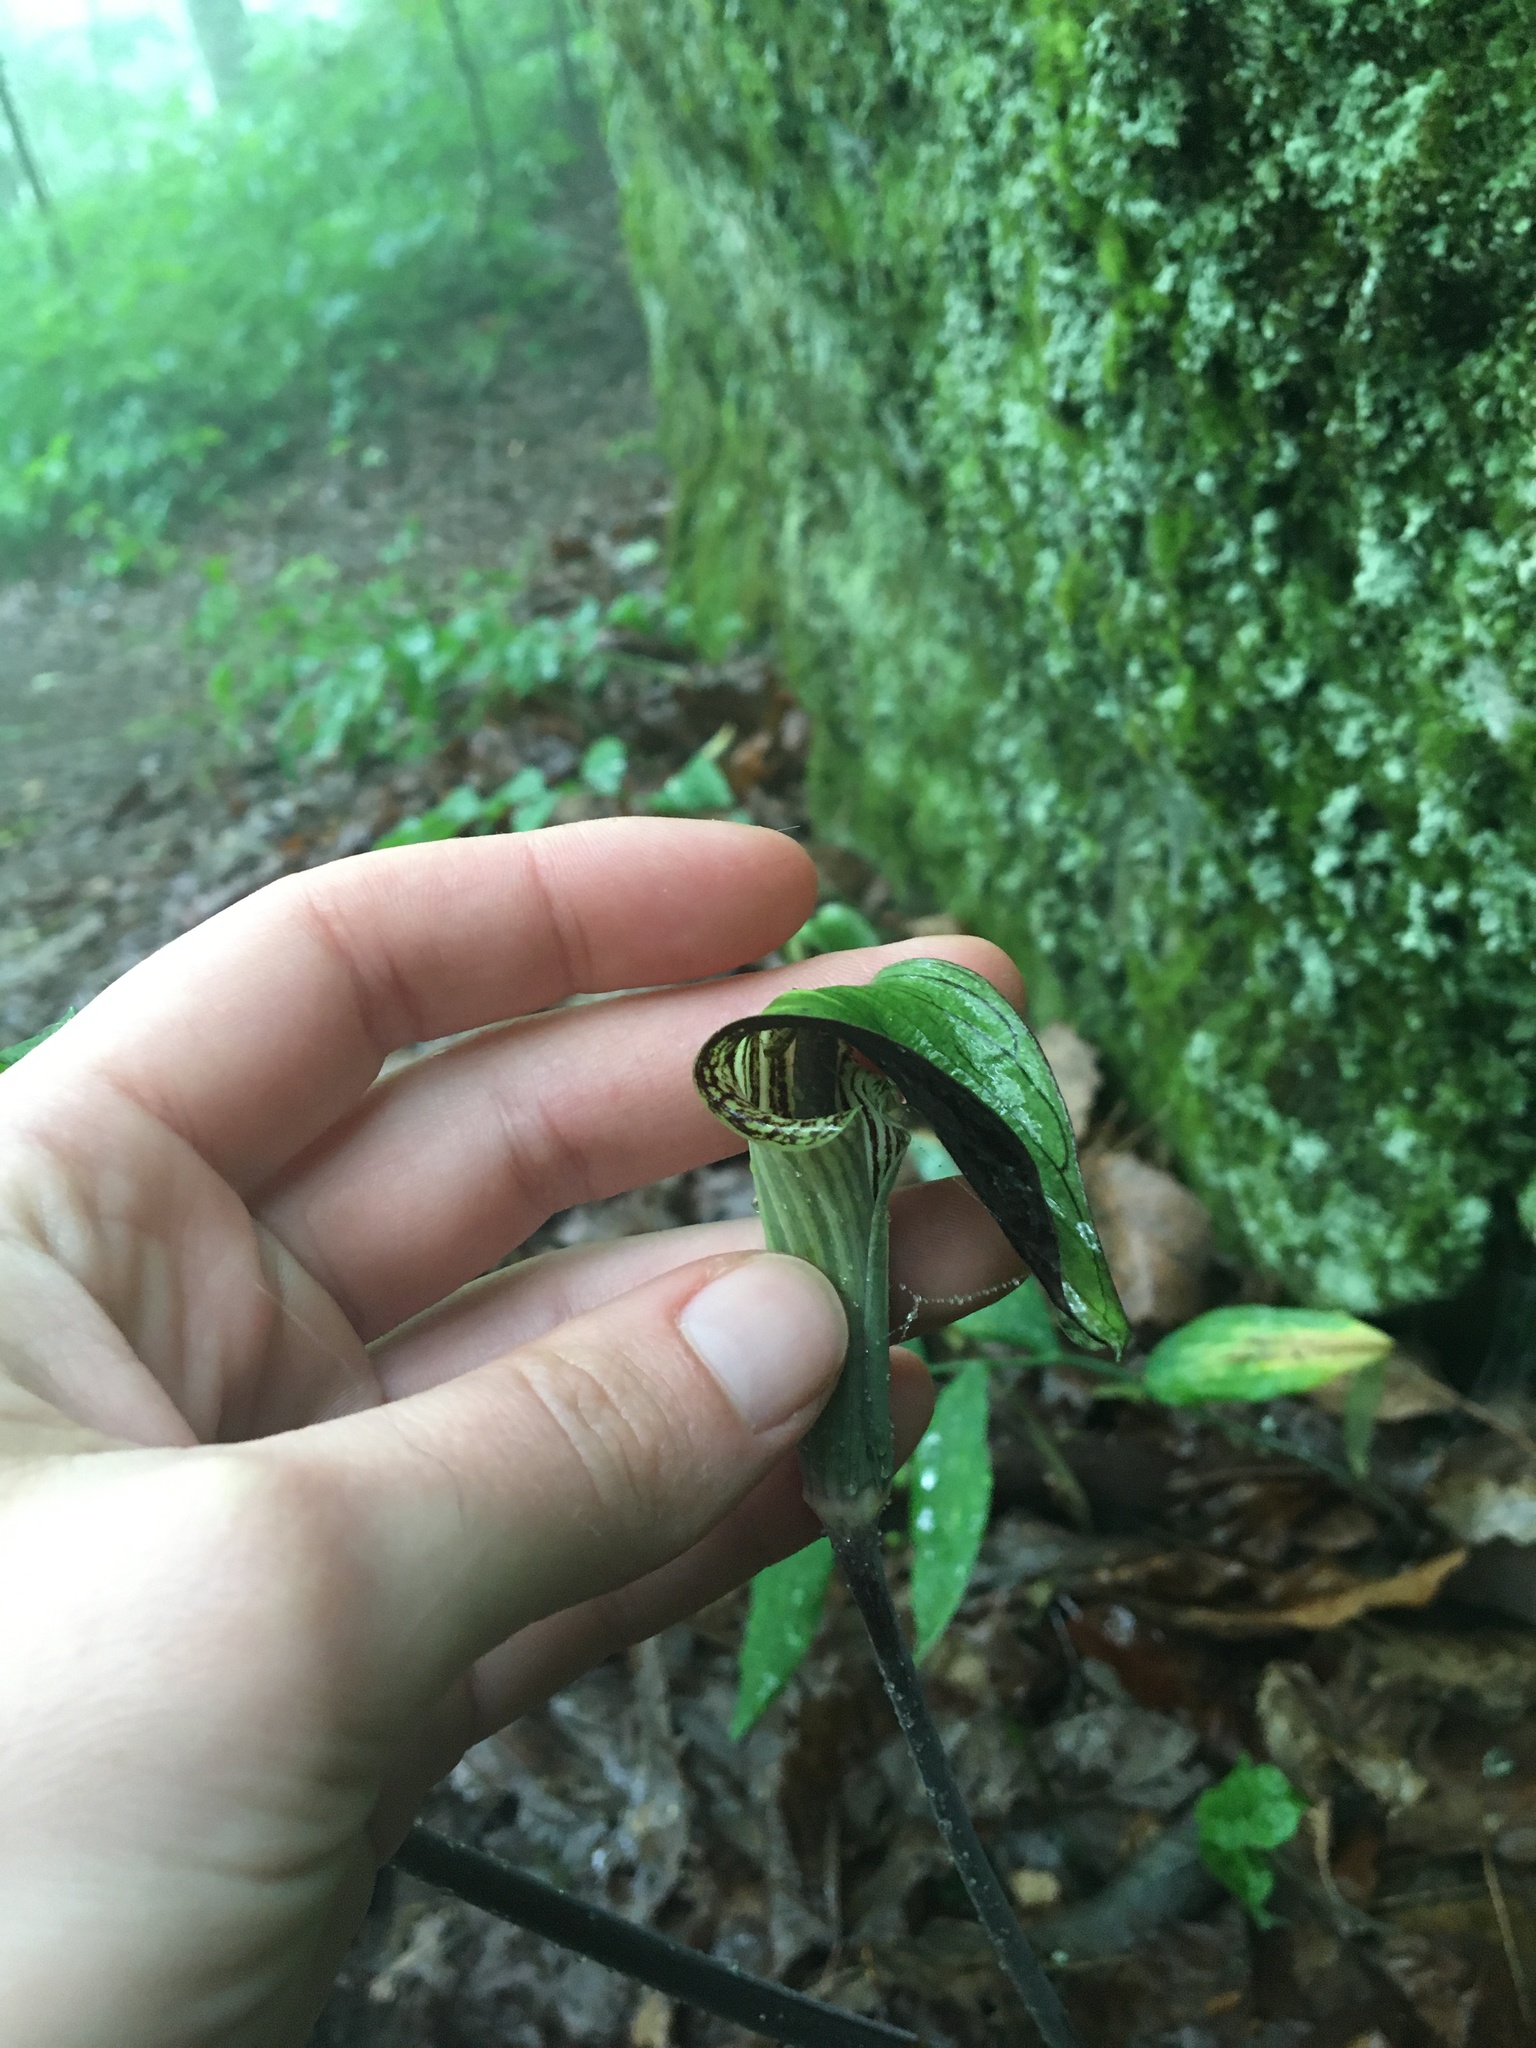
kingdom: Plantae
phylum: Tracheophyta
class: Liliopsida
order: Alismatales
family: Araceae
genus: Arisaema
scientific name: Arisaema triphyllum
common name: Jack-in-the-pulpit
